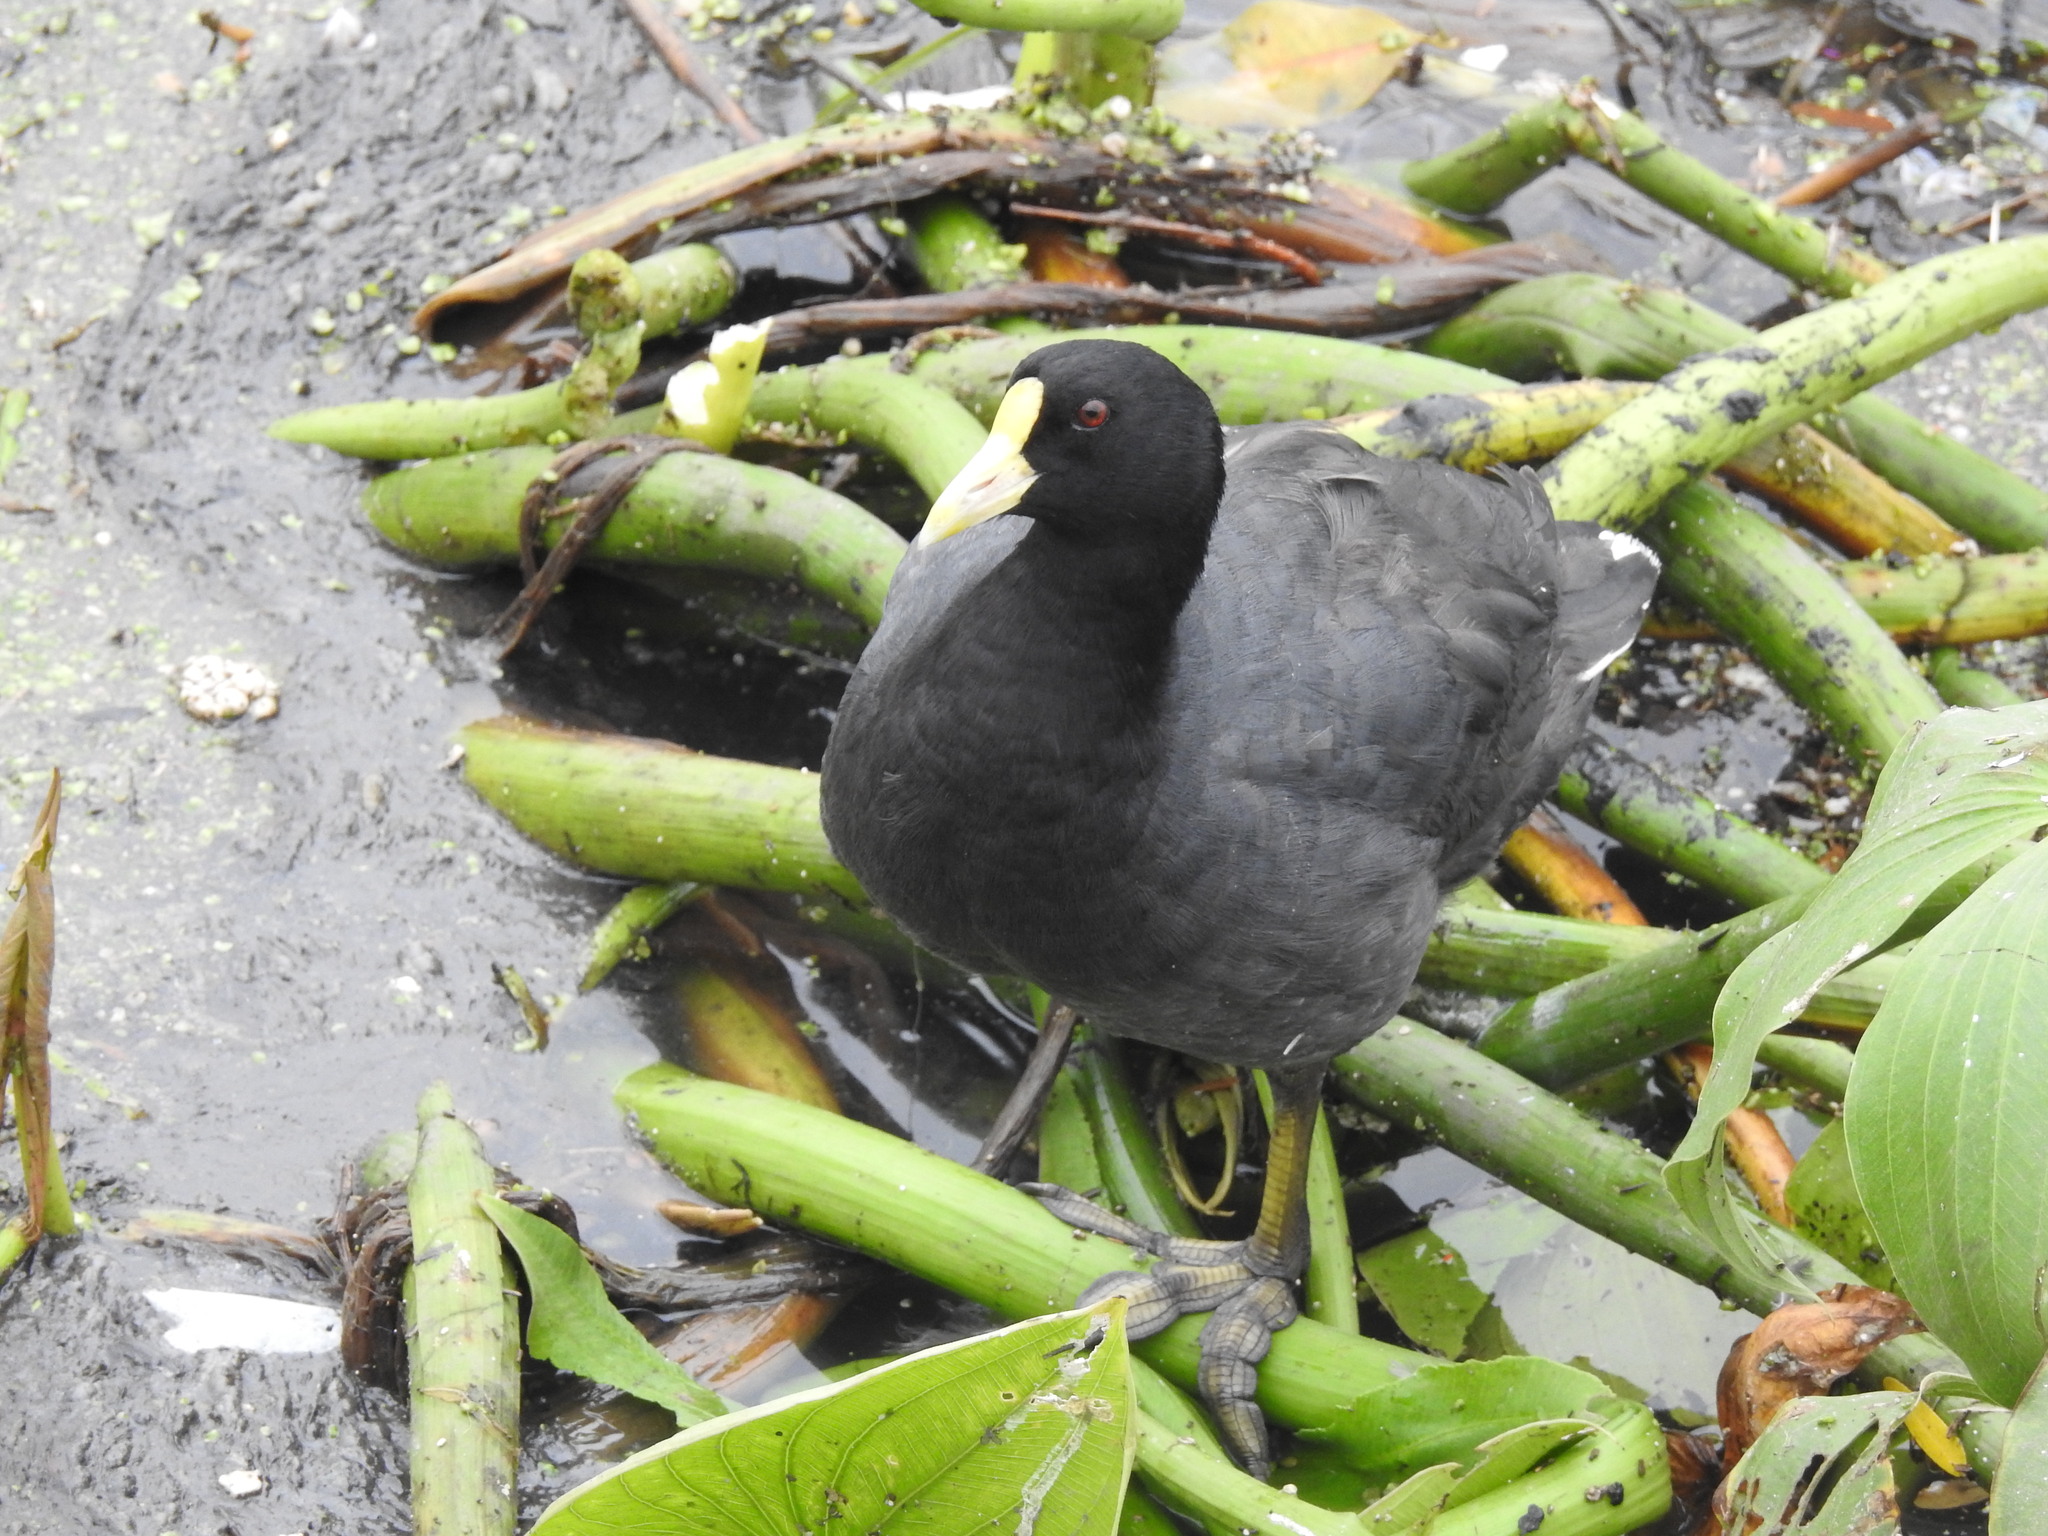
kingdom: Animalia
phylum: Chordata
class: Aves
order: Gruiformes
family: Rallidae
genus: Fulica
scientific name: Fulica leucoptera
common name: White-winged coot
